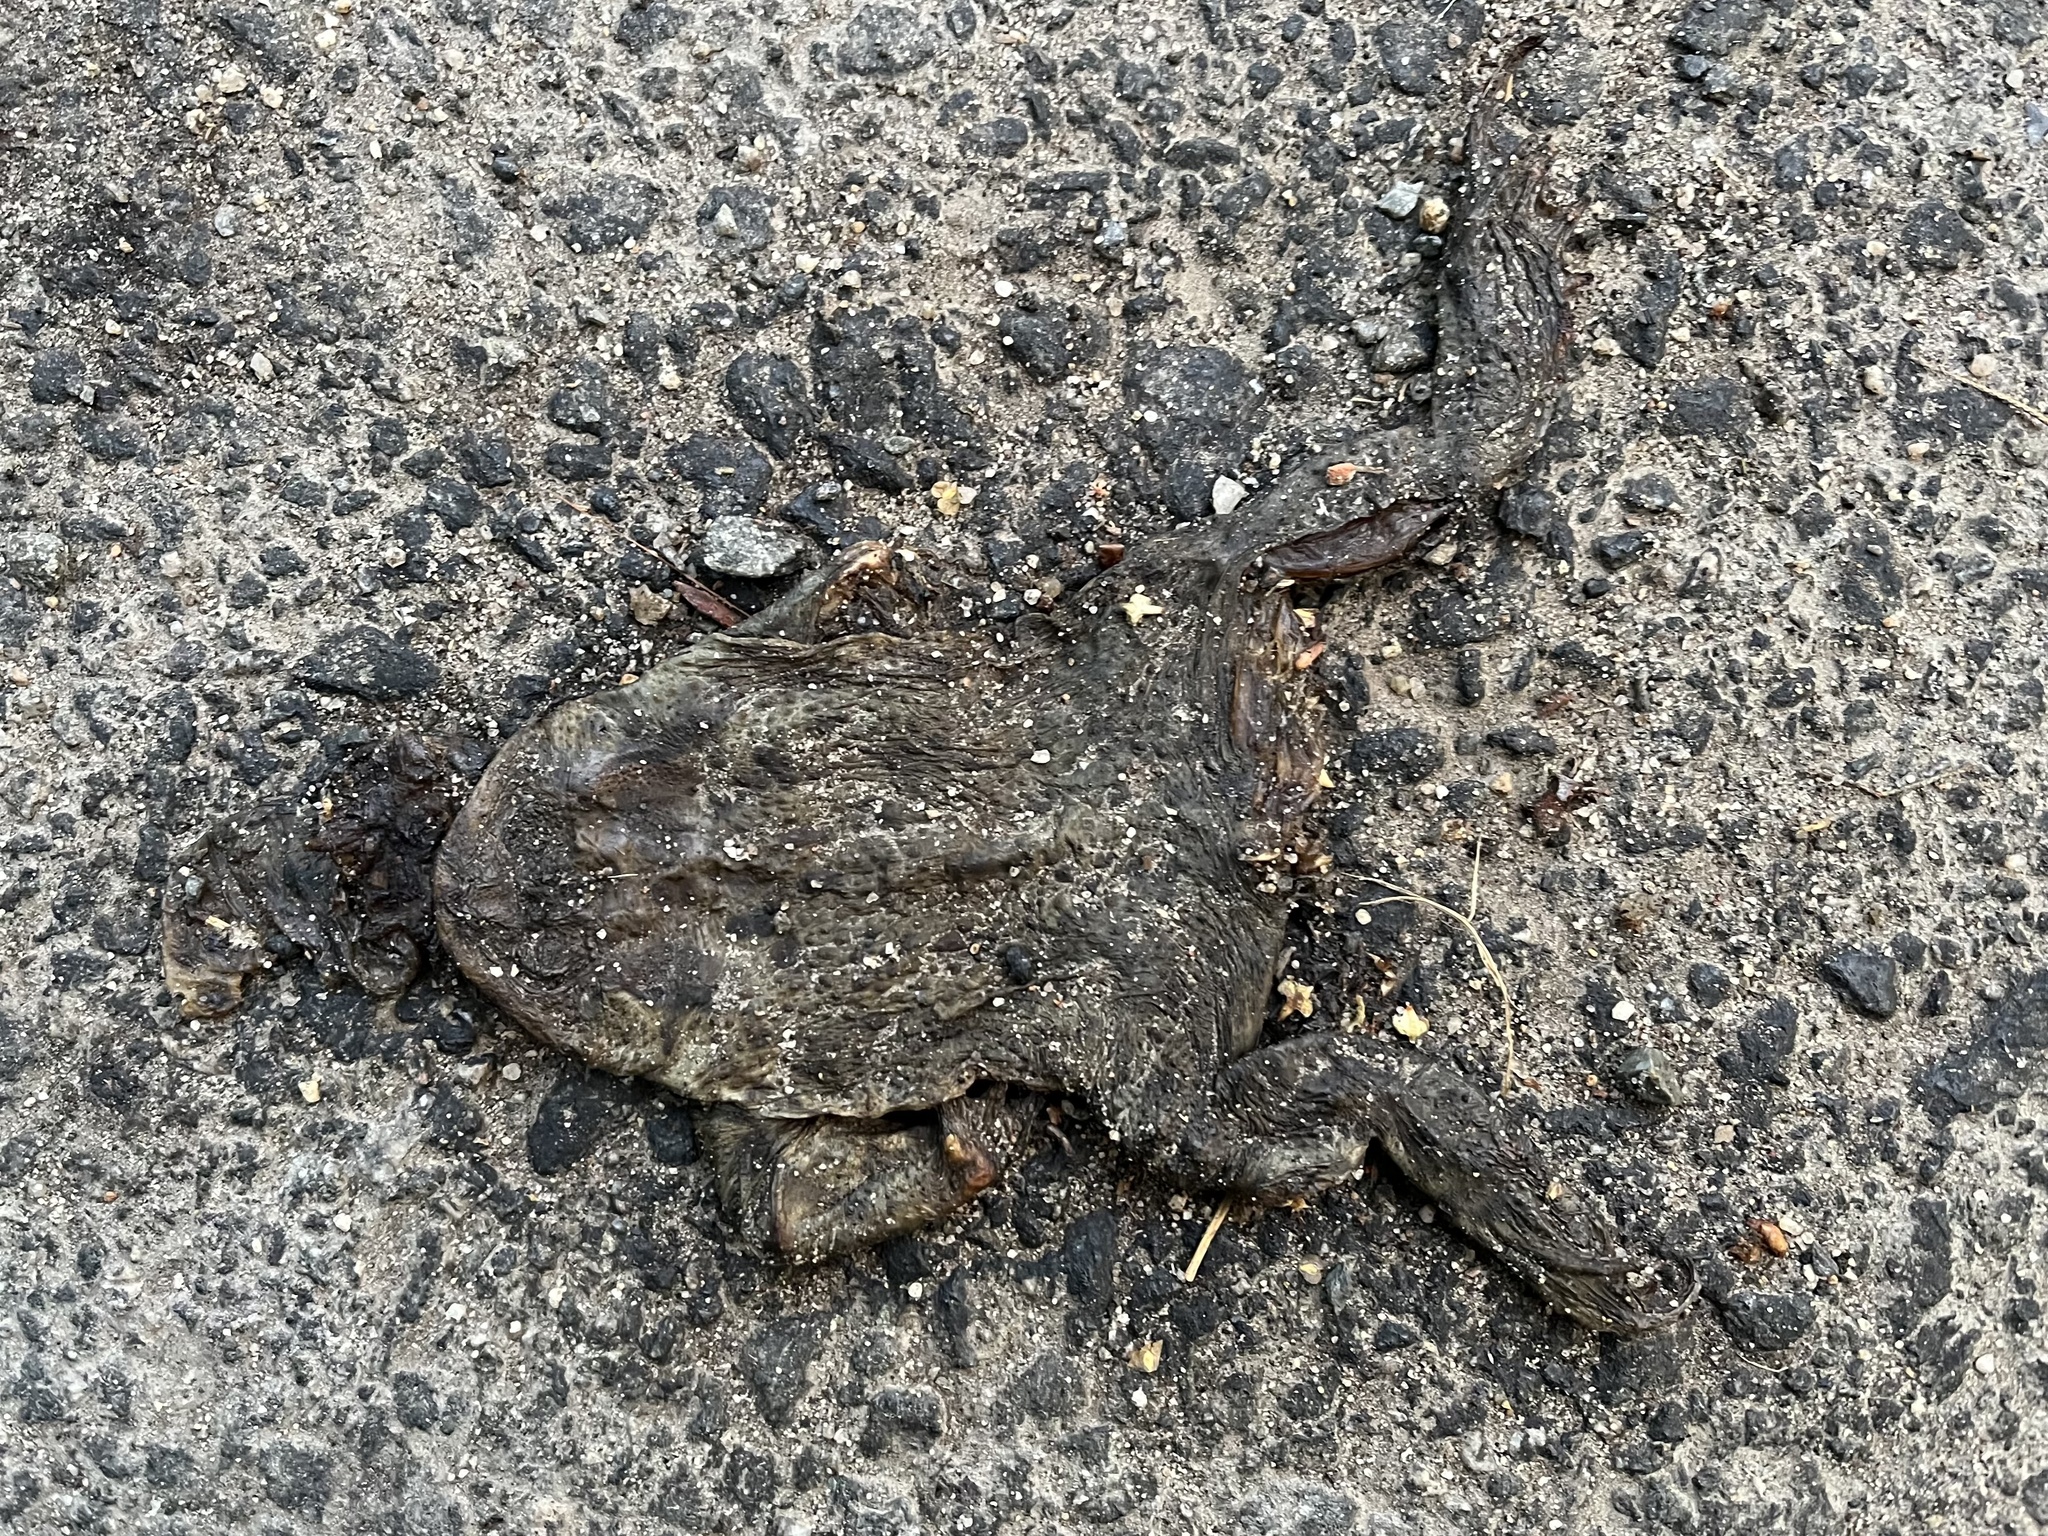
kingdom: Animalia
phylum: Chordata
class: Amphibia
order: Anura
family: Bufonidae
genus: Bufo
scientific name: Bufo bufo
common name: Common toad
